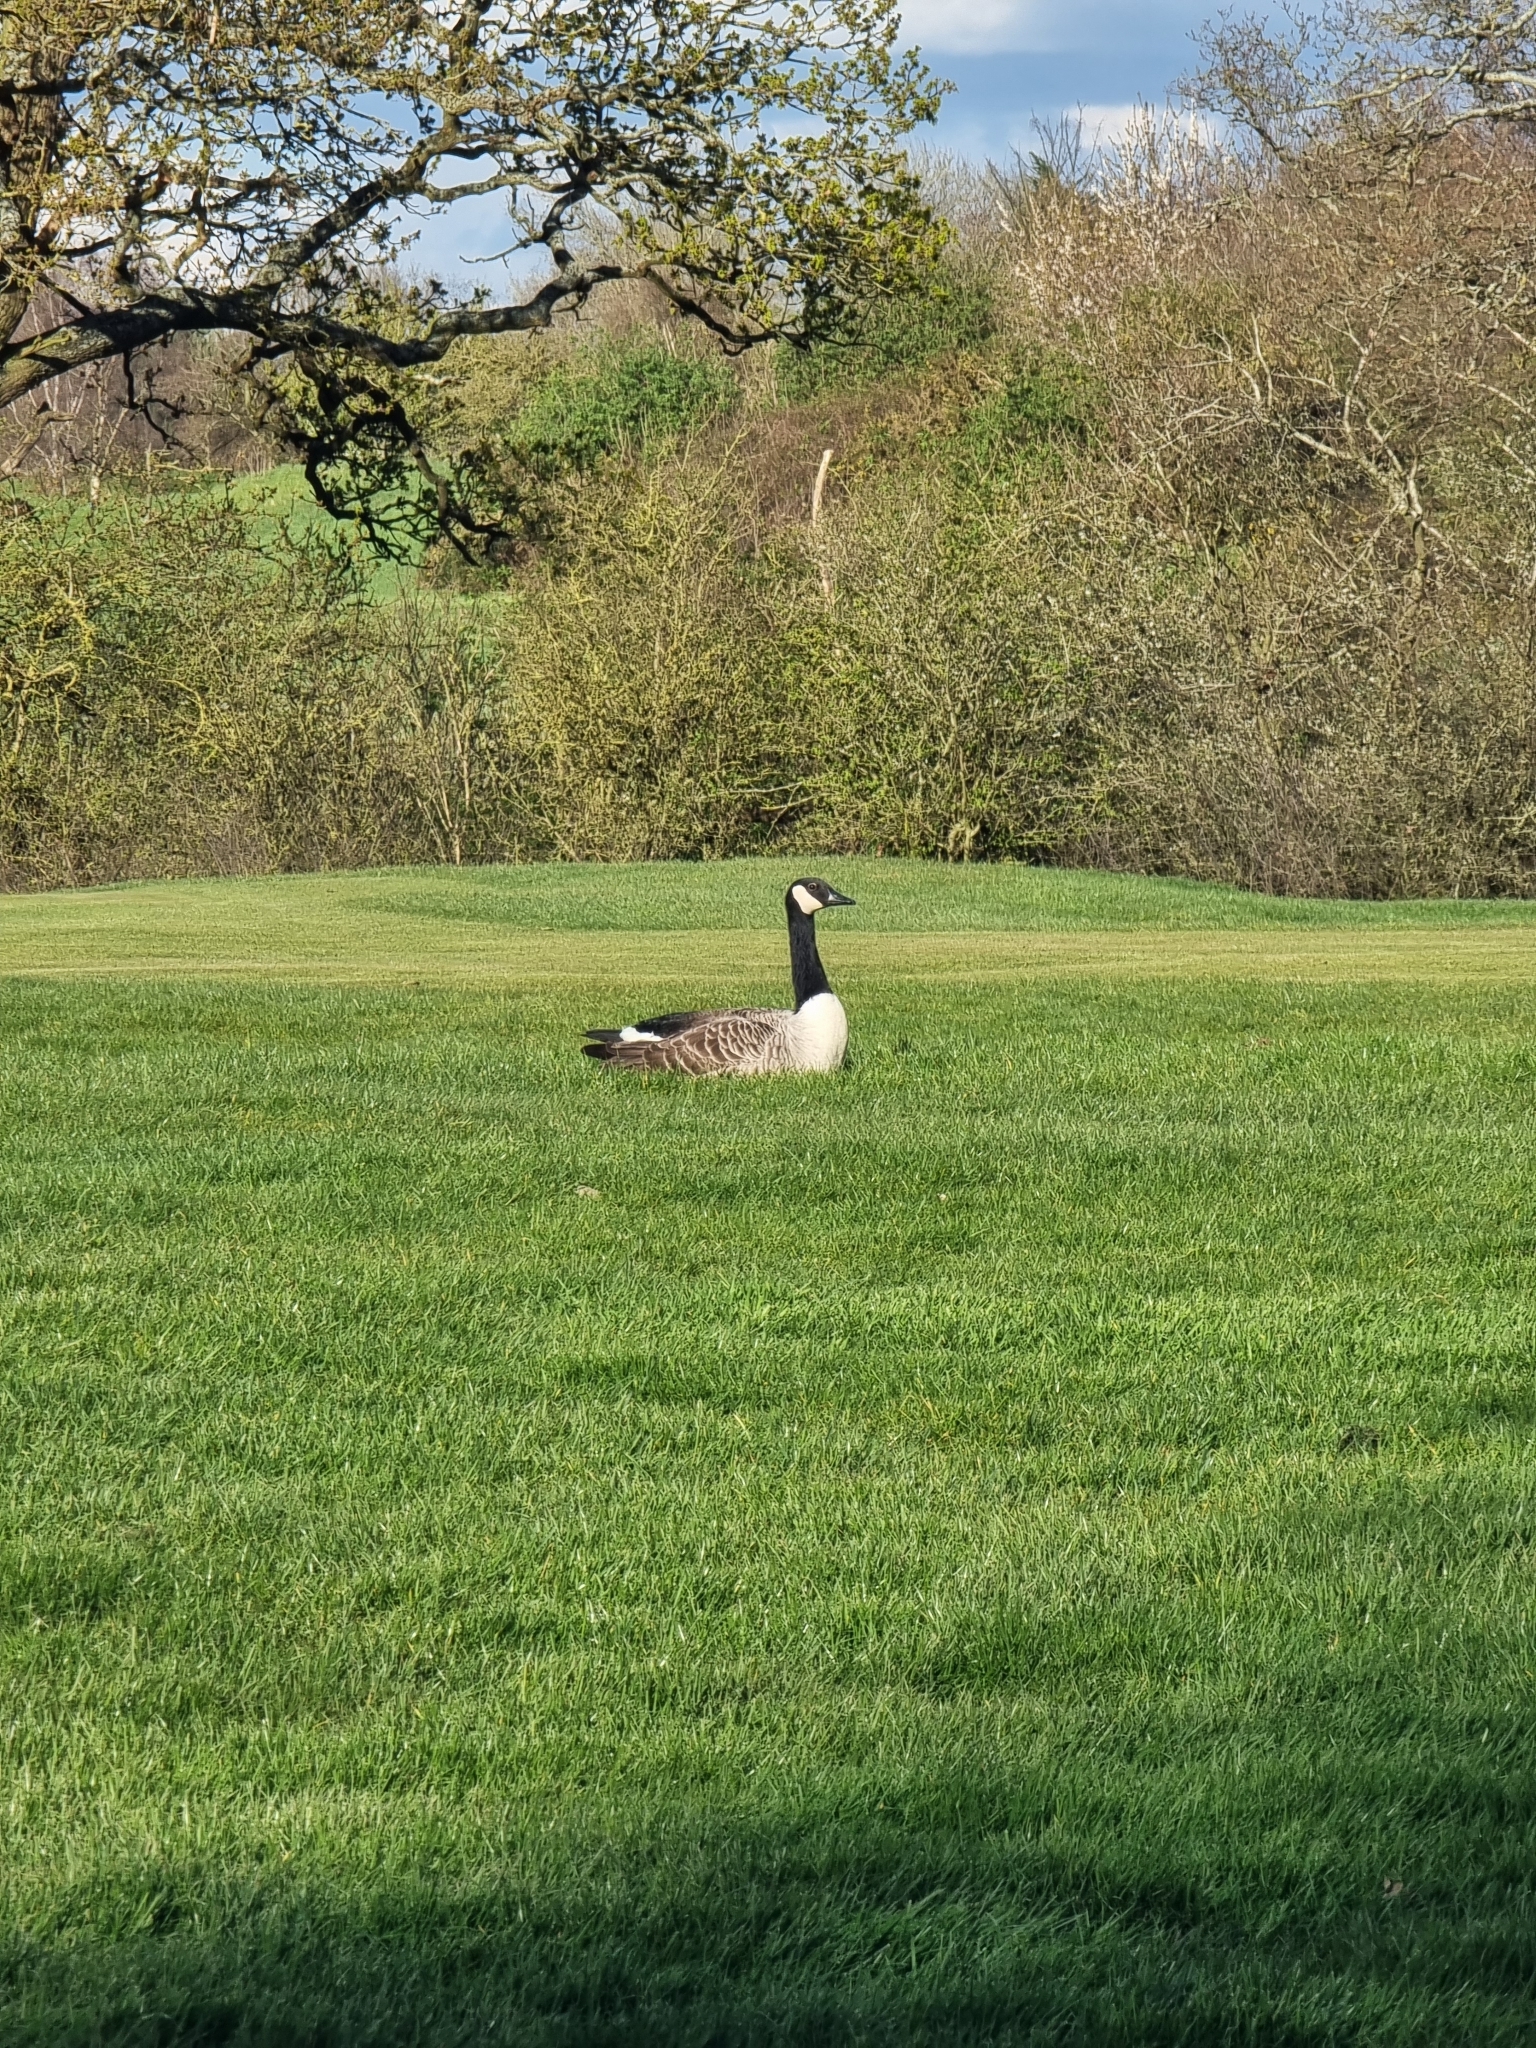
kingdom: Animalia
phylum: Chordata
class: Aves
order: Anseriformes
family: Anatidae
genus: Branta
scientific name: Branta canadensis
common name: Canada goose
